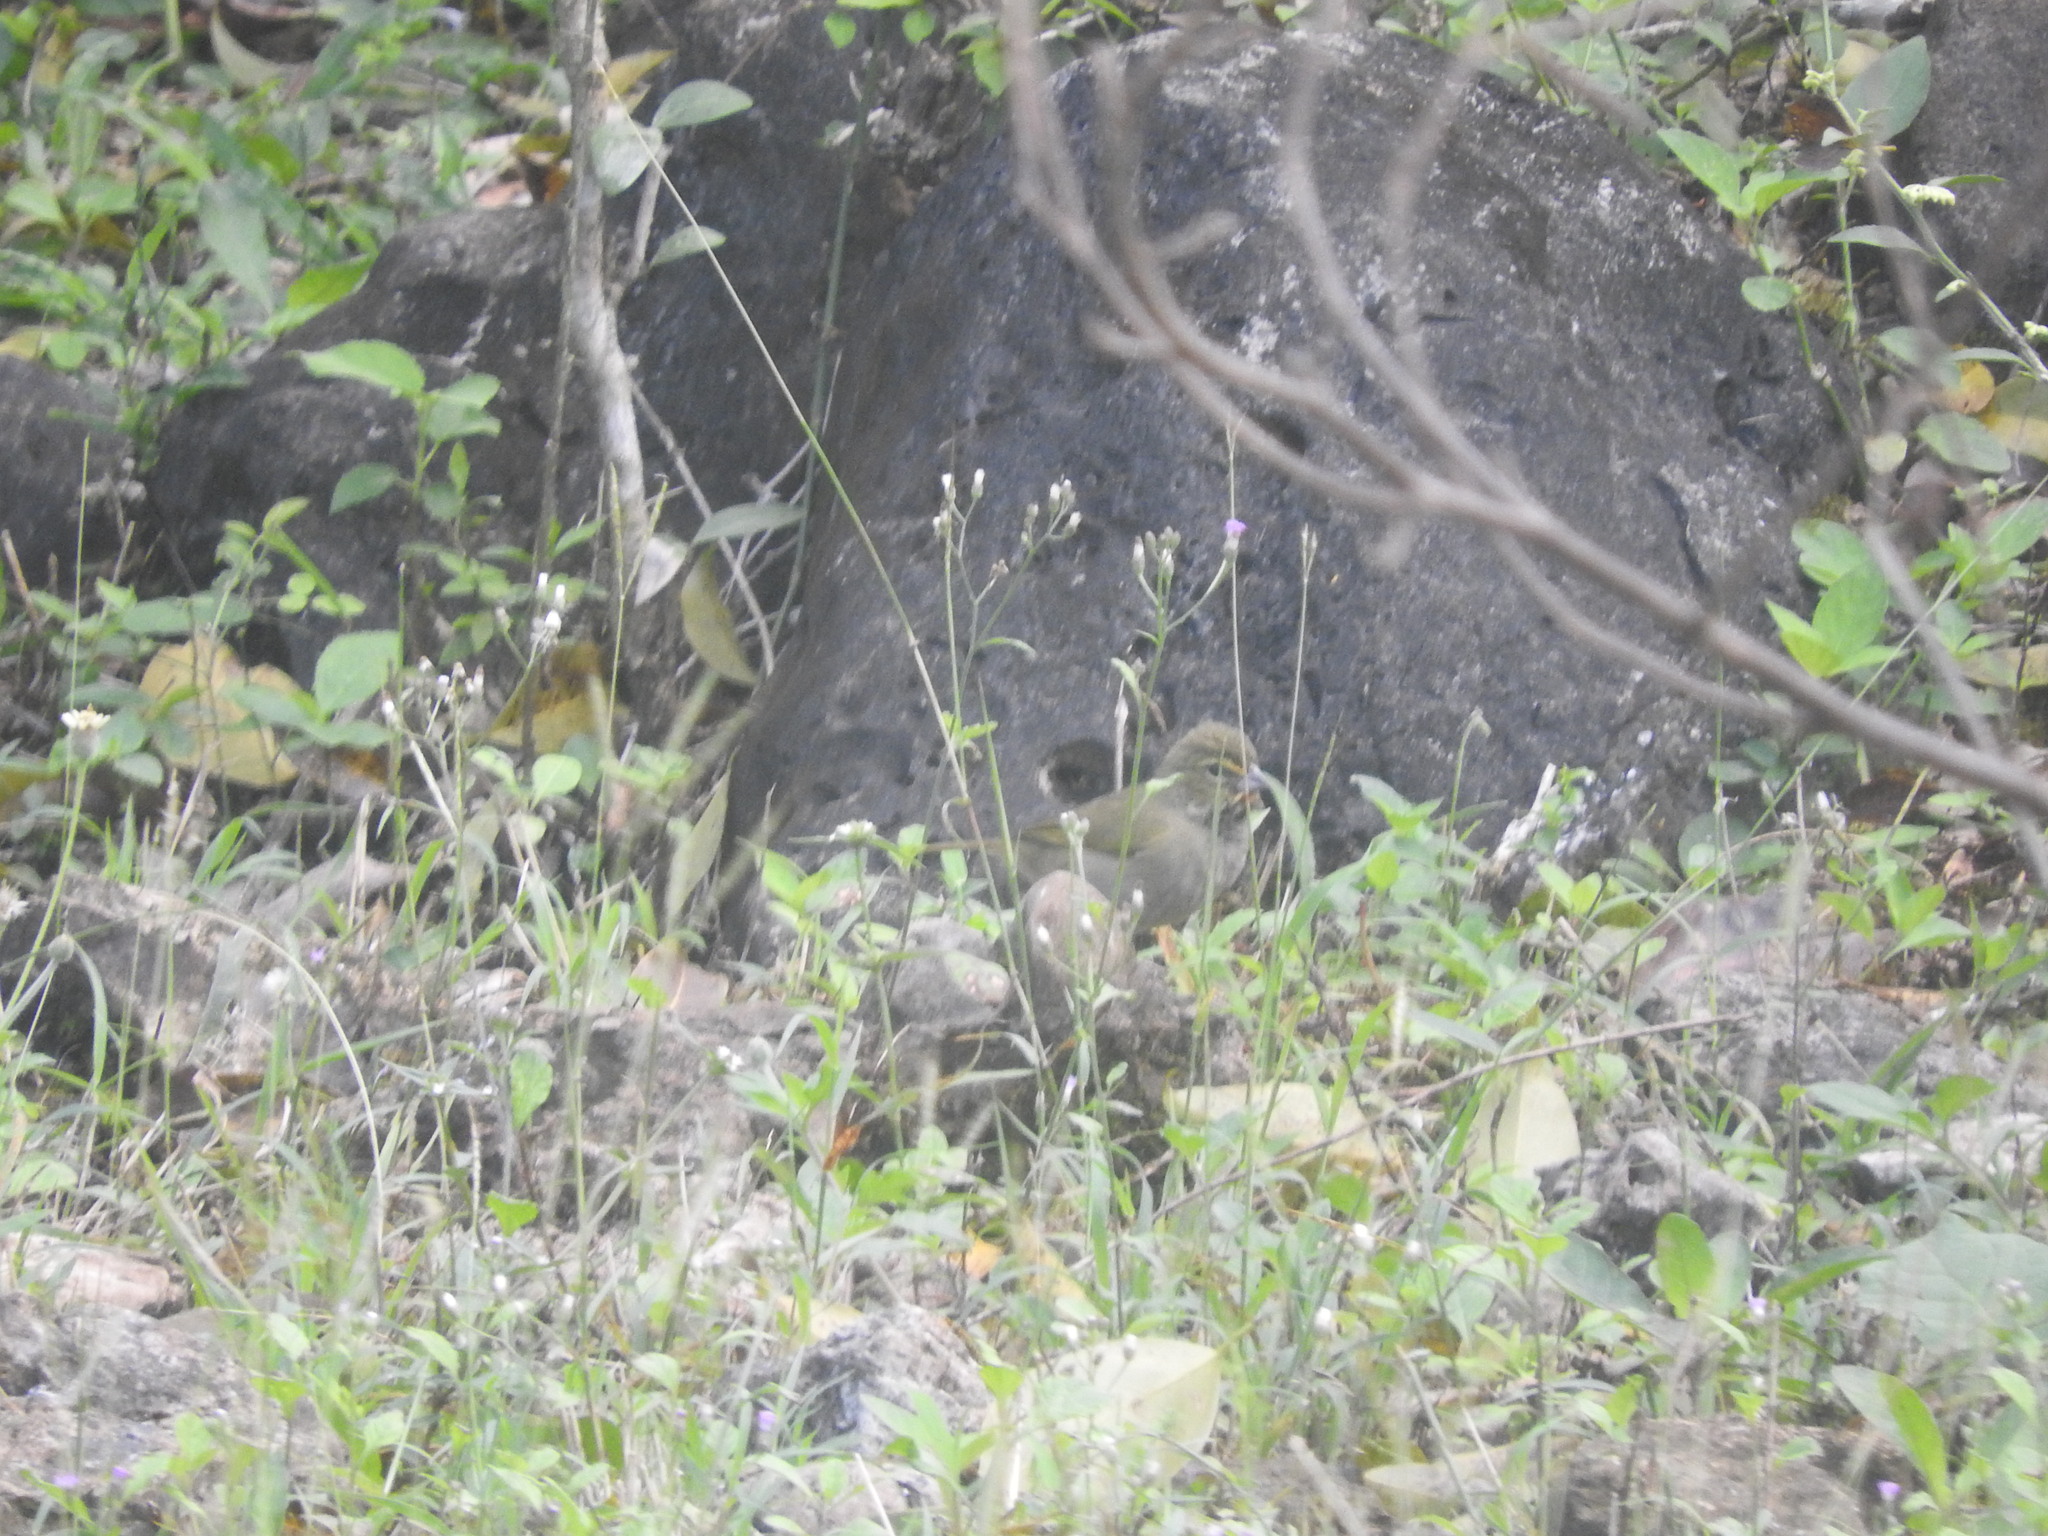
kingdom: Animalia
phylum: Chordata
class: Aves
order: Passeriformes
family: Thraupidae
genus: Tiaris
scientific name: Tiaris olivaceus
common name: Yellow-faced grassquit
